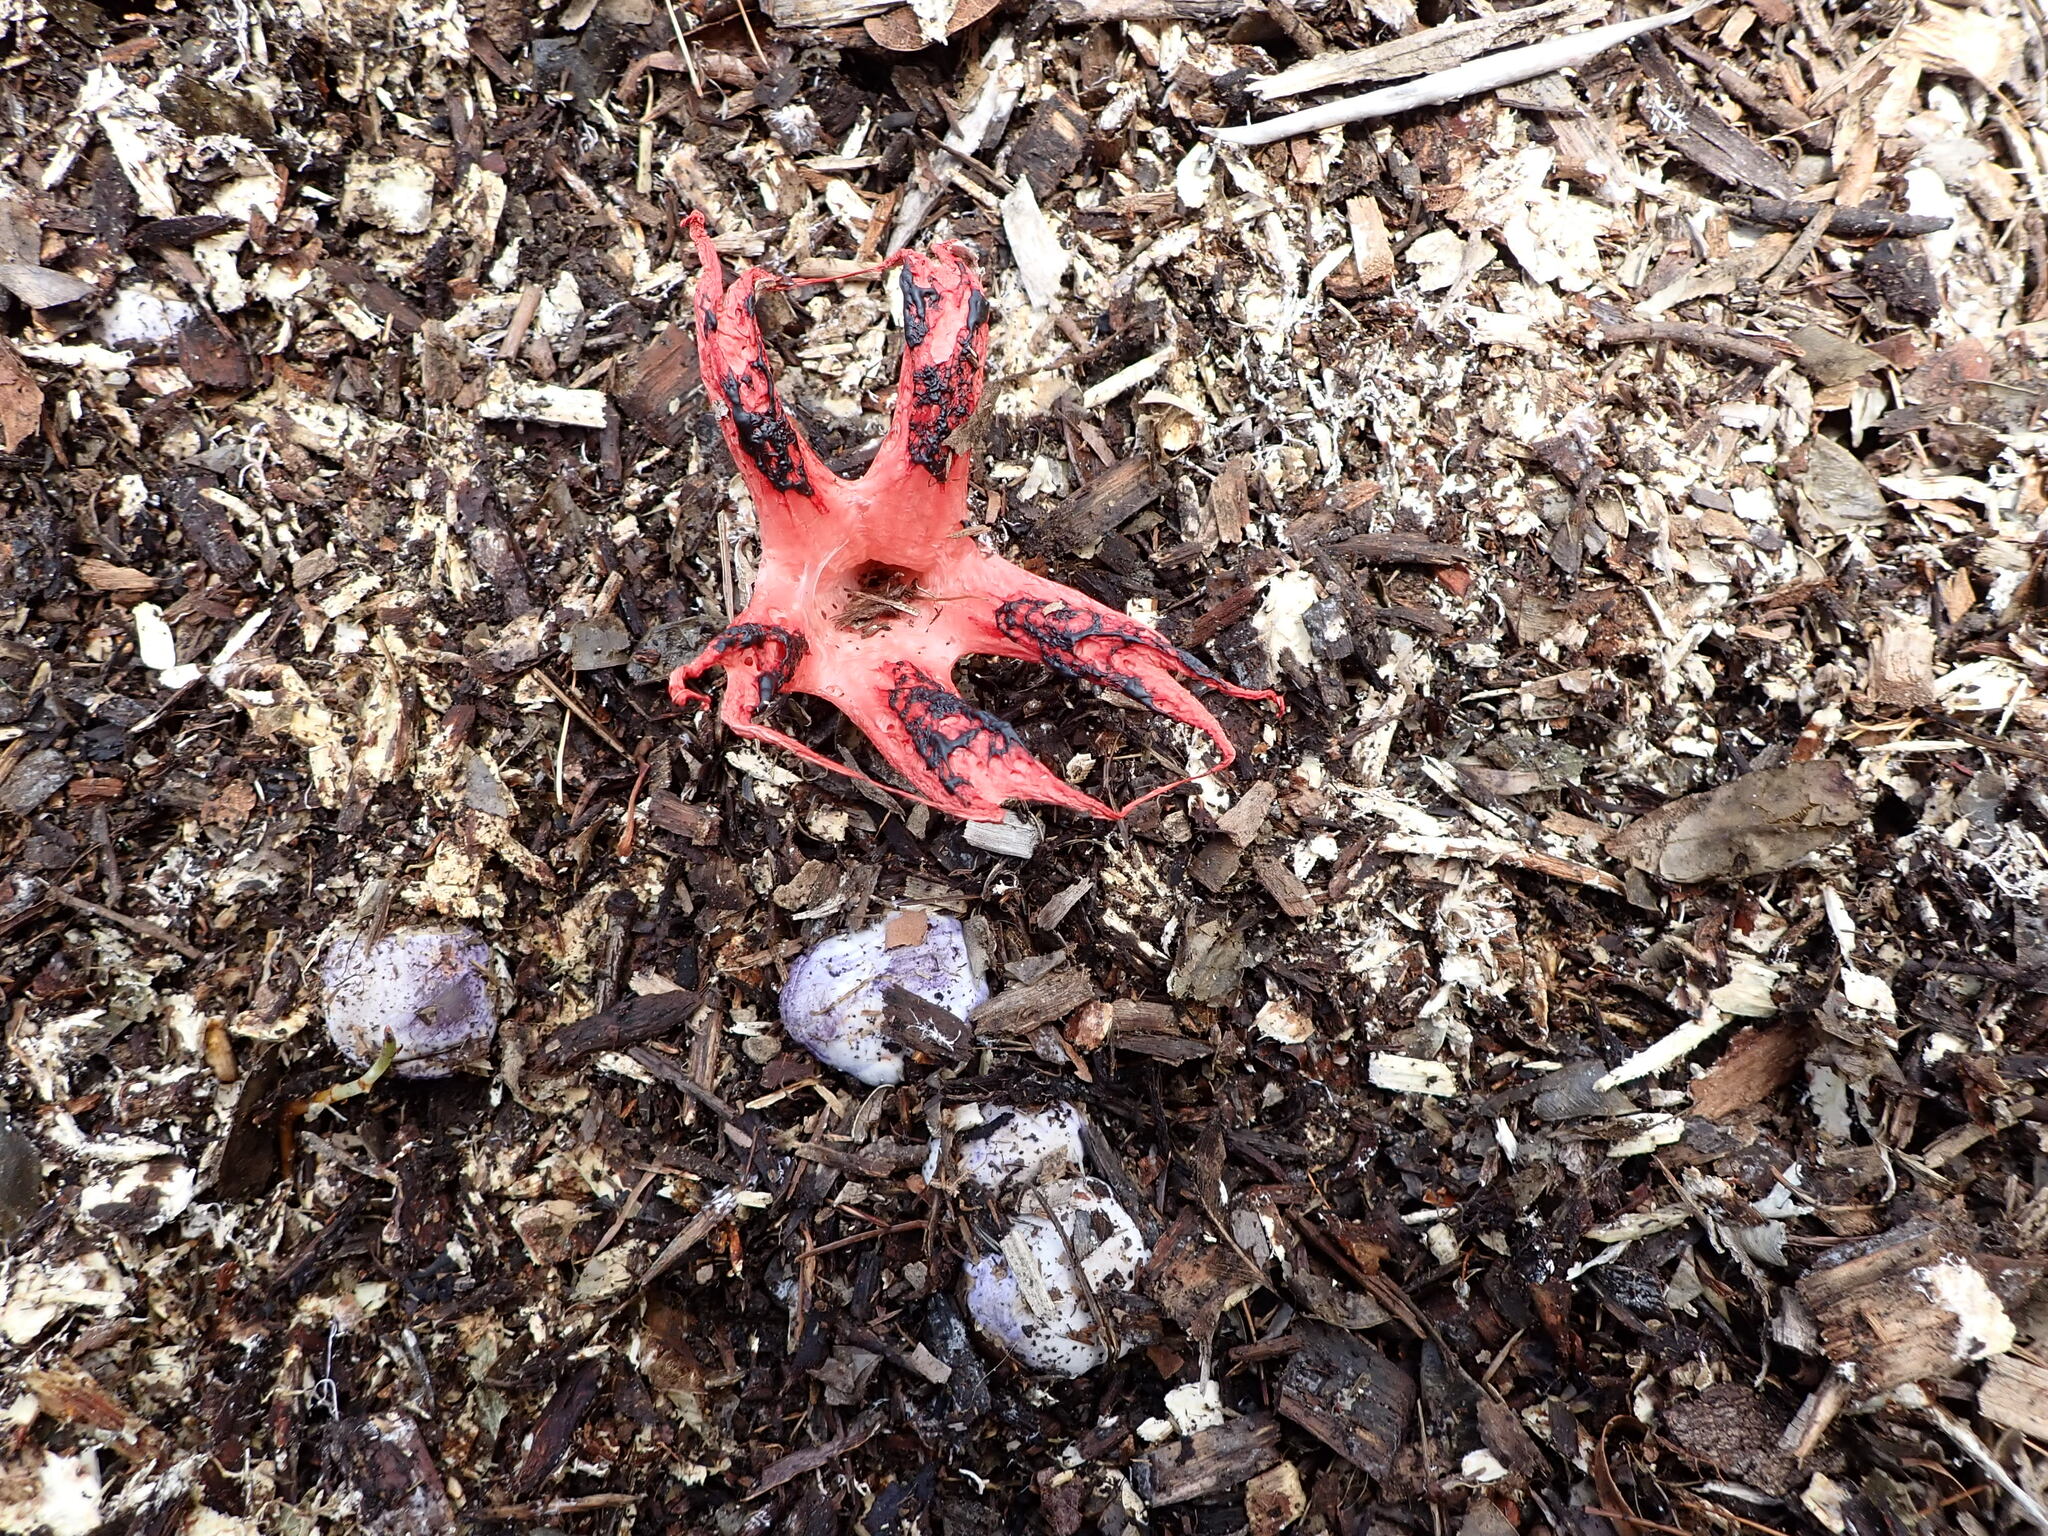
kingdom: Fungi
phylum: Basidiomycota
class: Agaricomycetes
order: Phallales
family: Phallaceae
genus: Clathrus
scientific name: Clathrus archeri
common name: Devil's fingers
